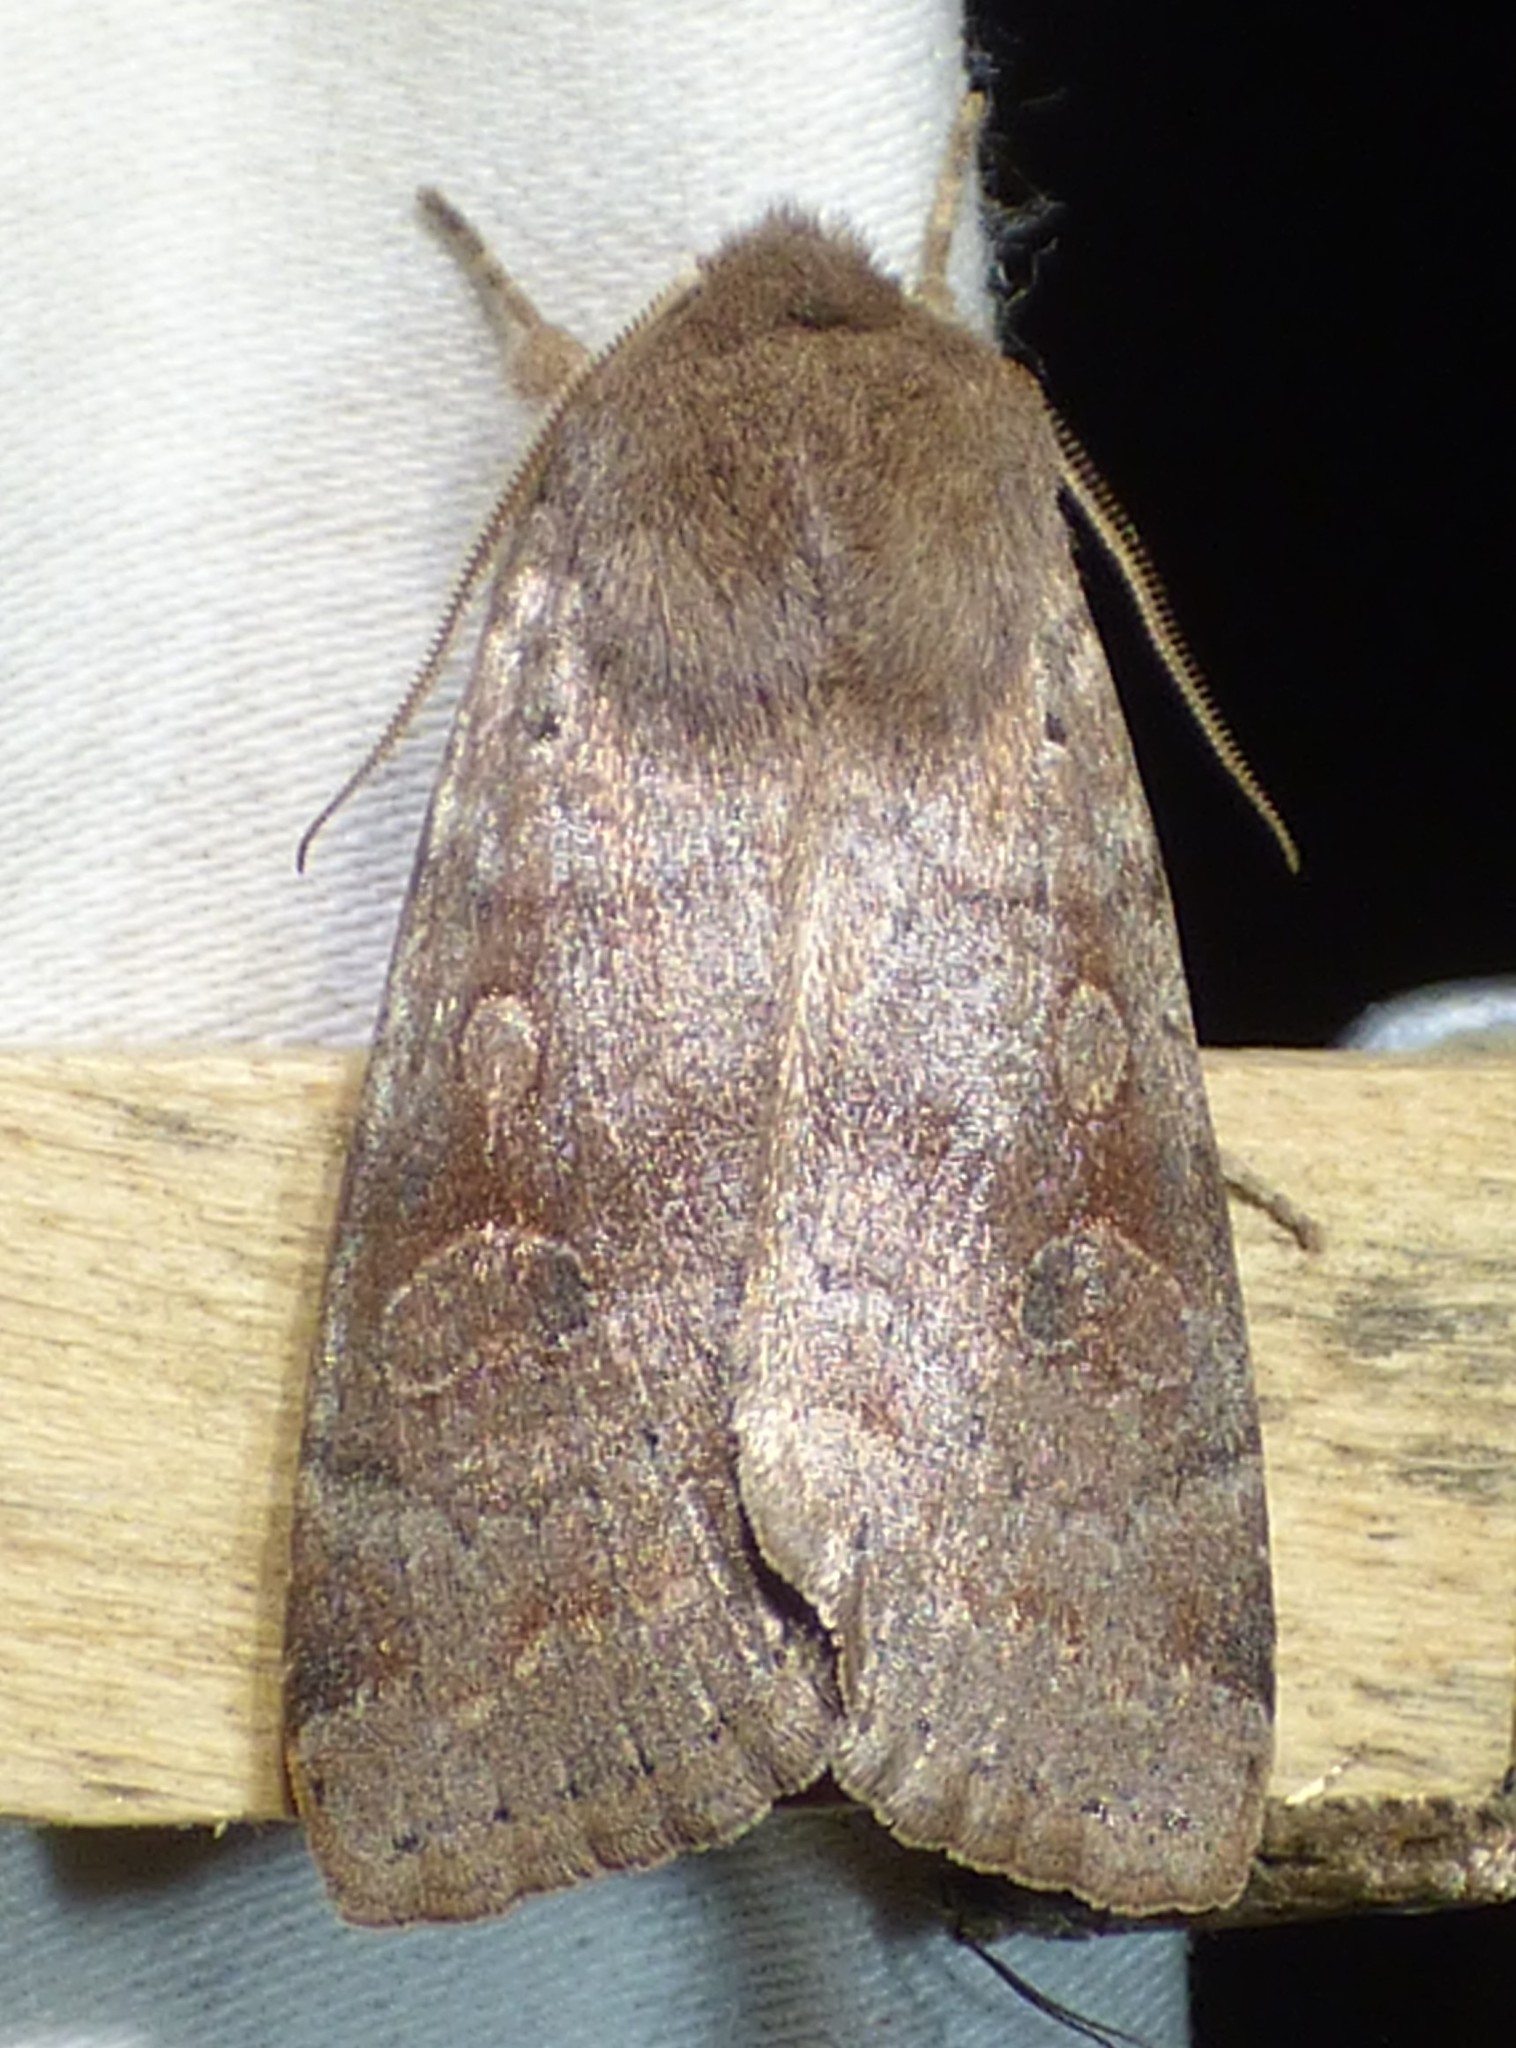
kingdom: Animalia
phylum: Arthropoda
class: Insecta
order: Lepidoptera
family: Noctuidae
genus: Orthosia
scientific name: Orthosia alurina
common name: Gray quaker
